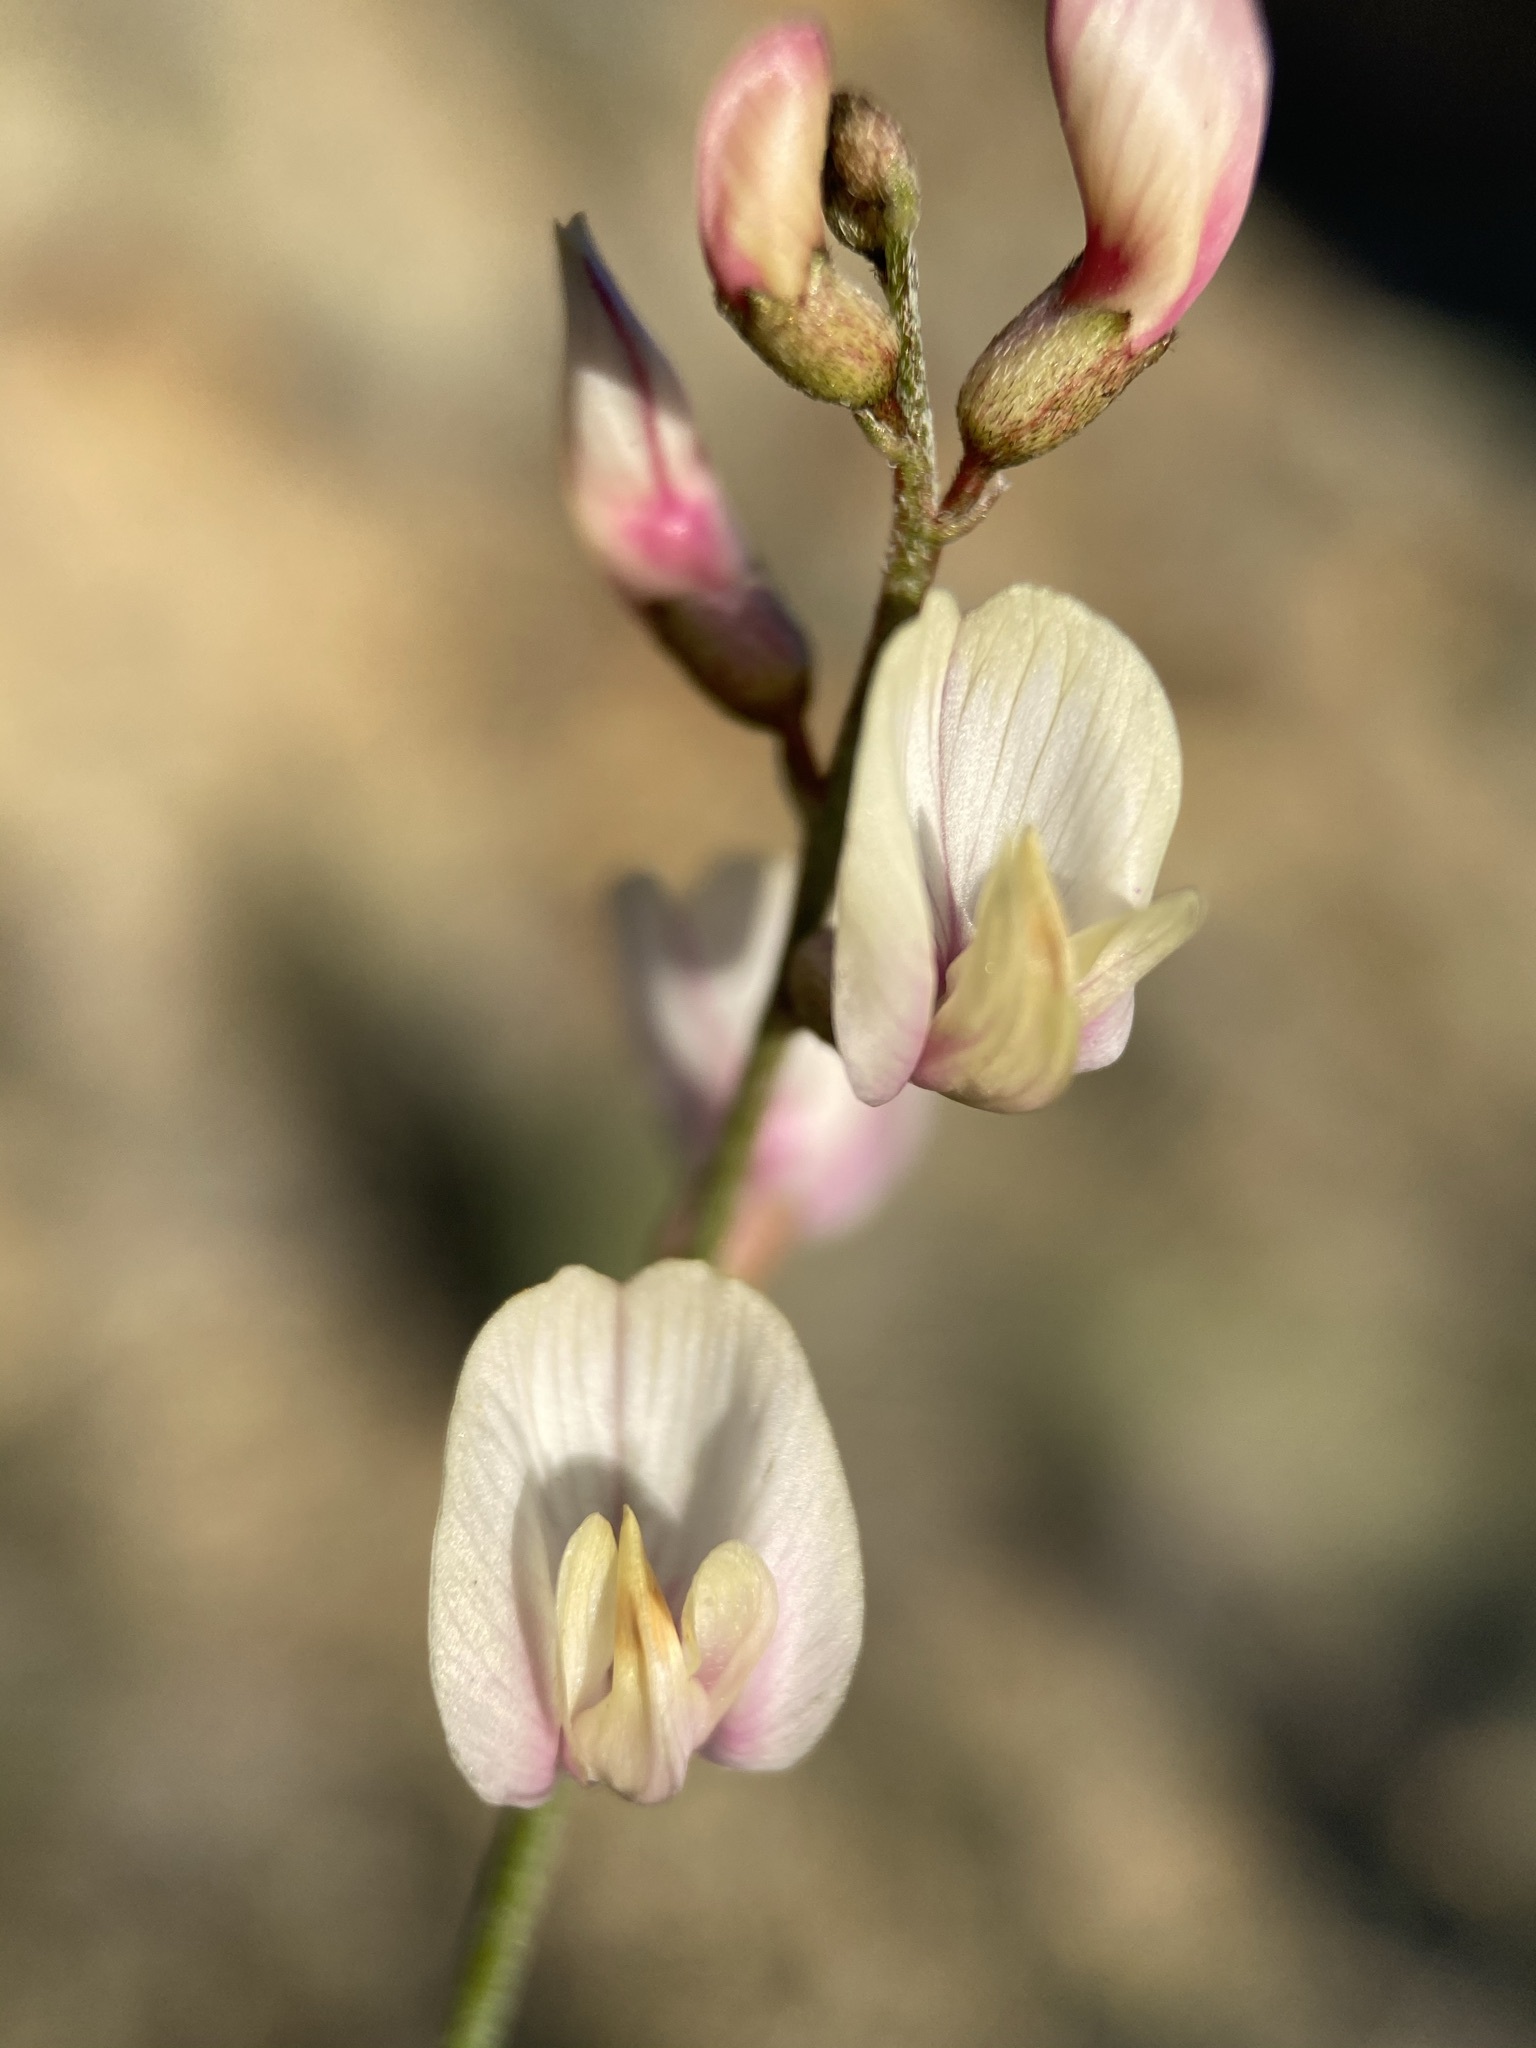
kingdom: Plantae
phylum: Tracheophyta
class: Magnoliopsida
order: Fabales
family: Fabaceae
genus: Astragalus
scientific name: Astragalus sterilis
